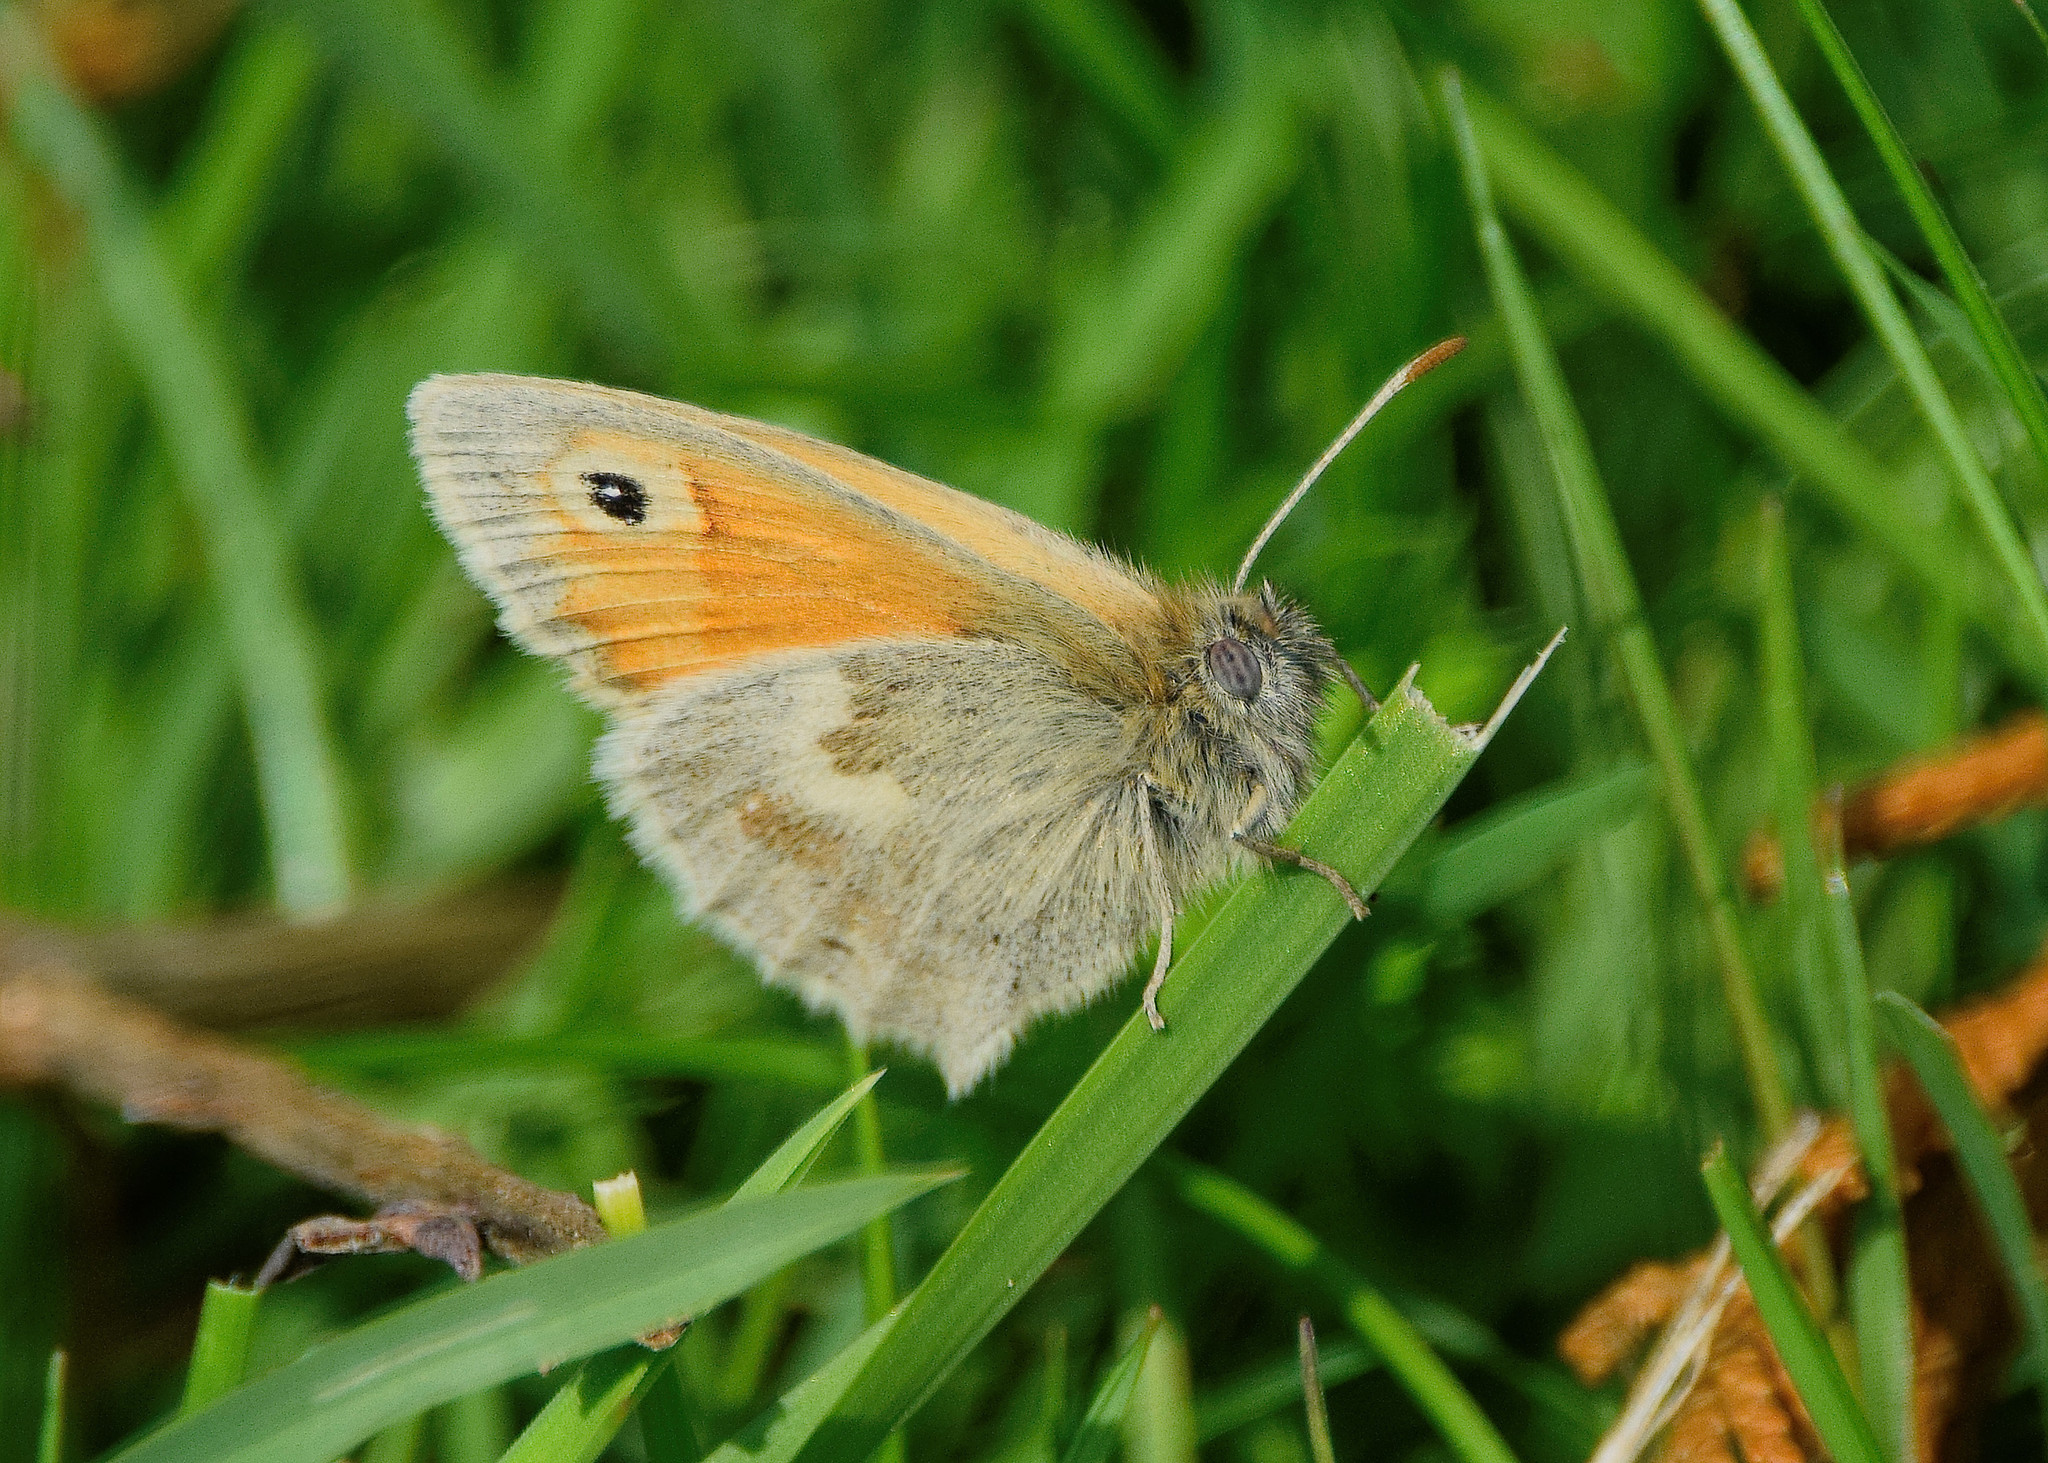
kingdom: Animalia
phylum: Arthropoda
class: Insecta
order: Lepidoptera
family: Nymphalidae
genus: Coenonympha
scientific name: Coenonympha pamphilus
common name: Small heath
